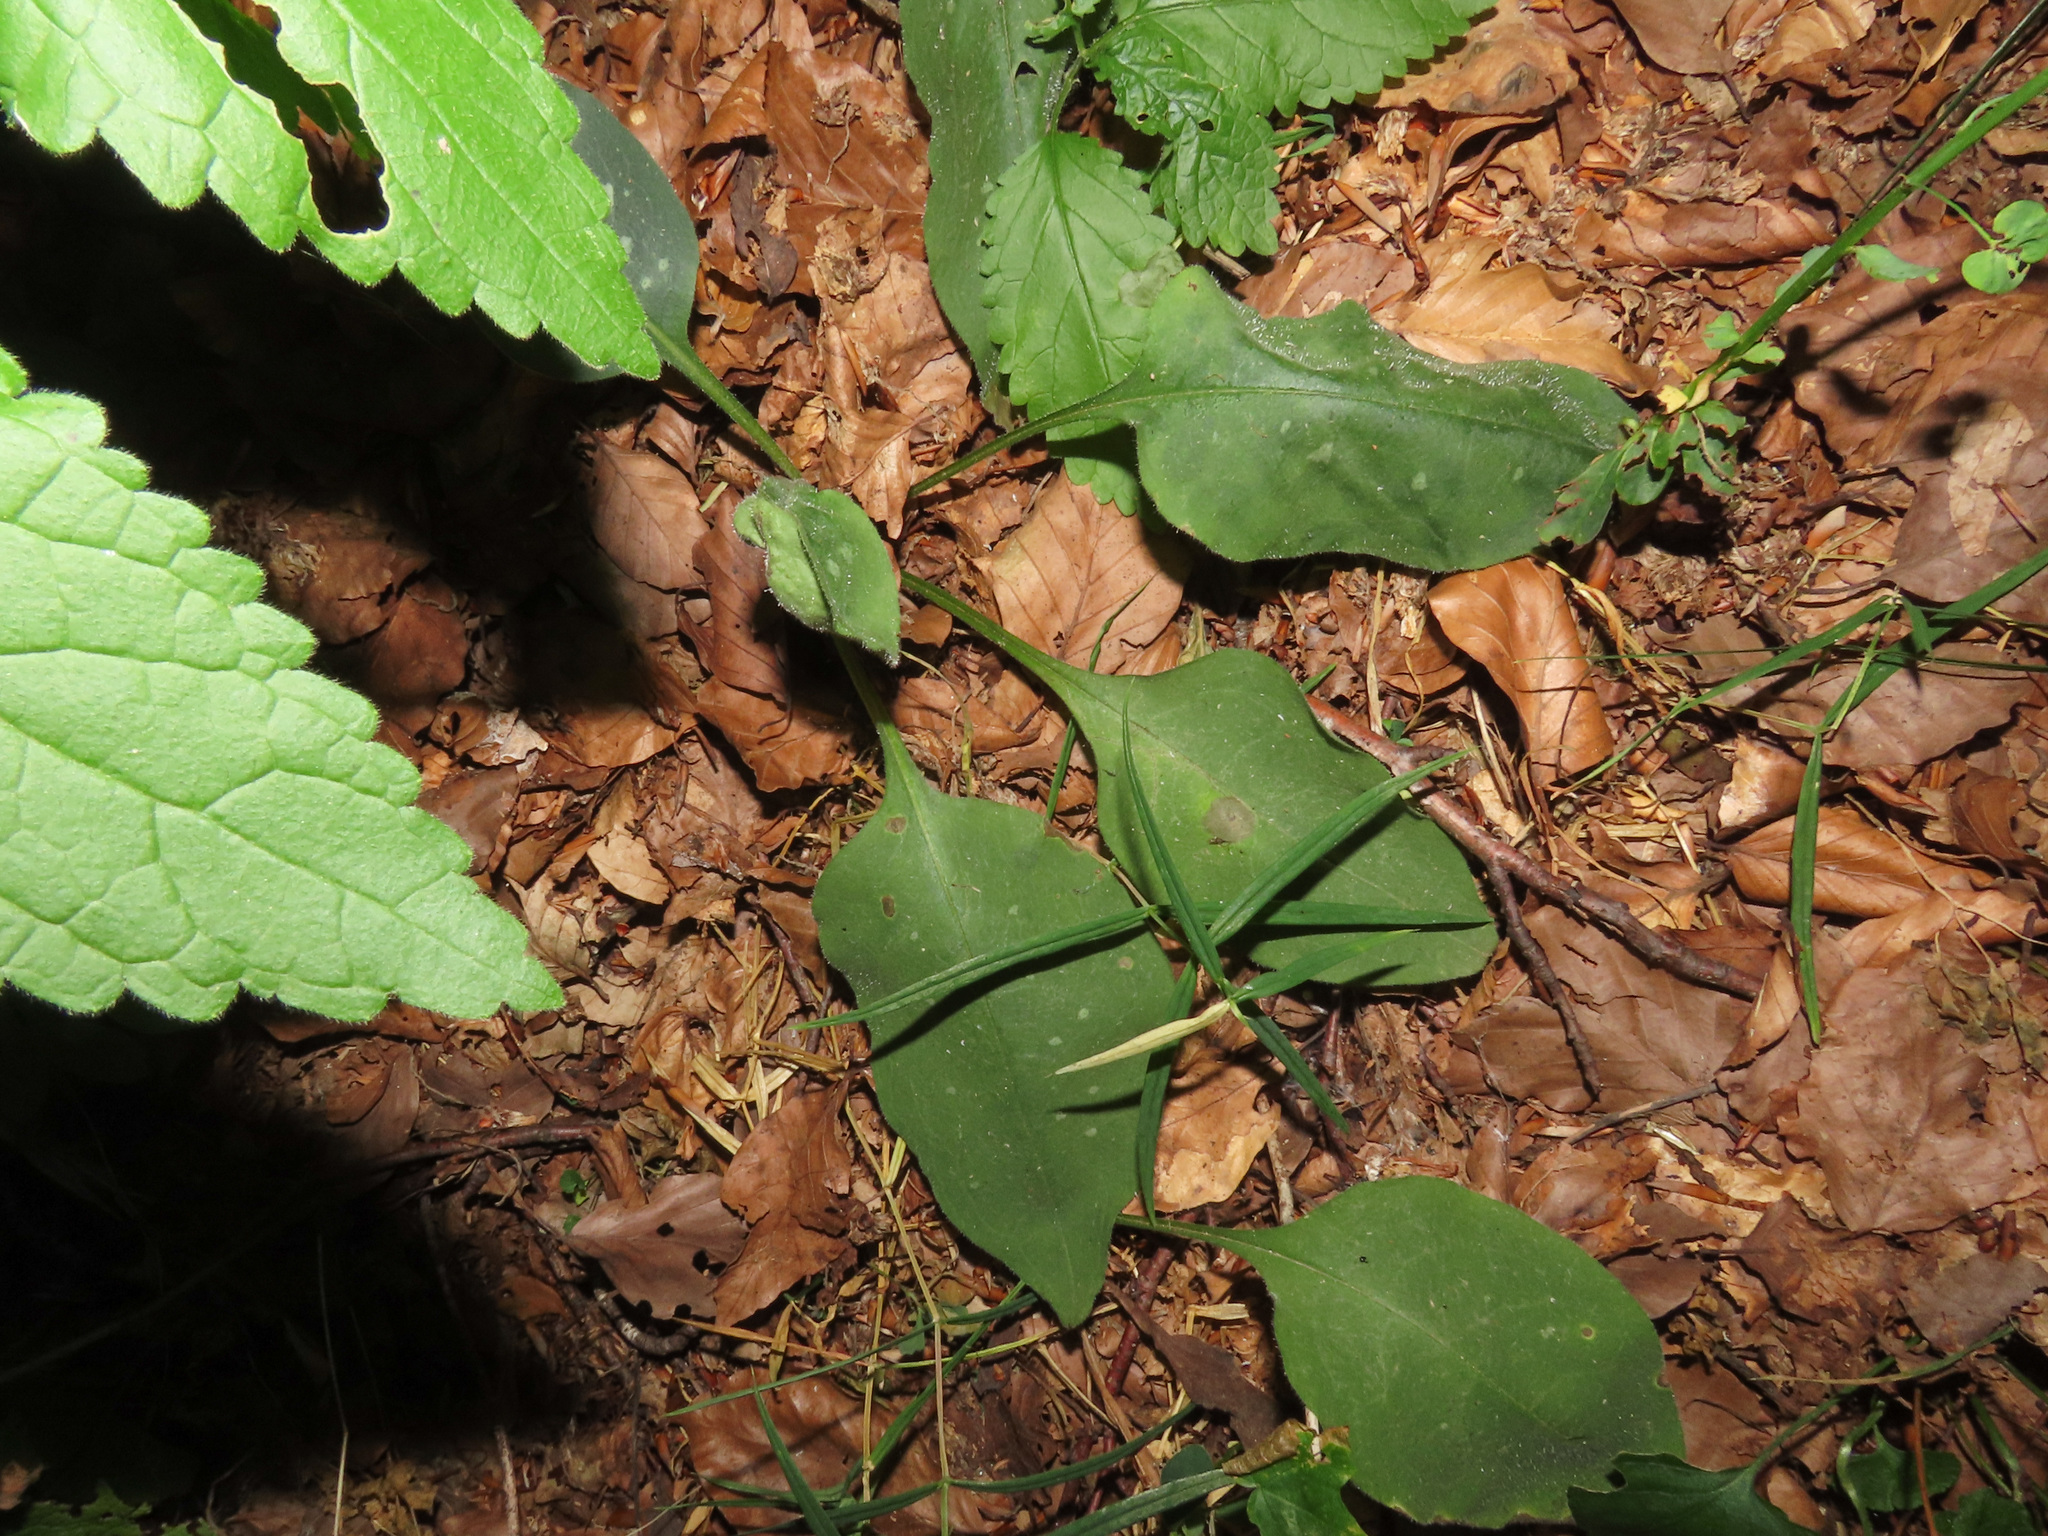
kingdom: Plantae
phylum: Tracheophyta
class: Magnoliopsida
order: Boraginales
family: Boraginaceae
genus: Pulmonaria
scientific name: Pulmonaria hirta
